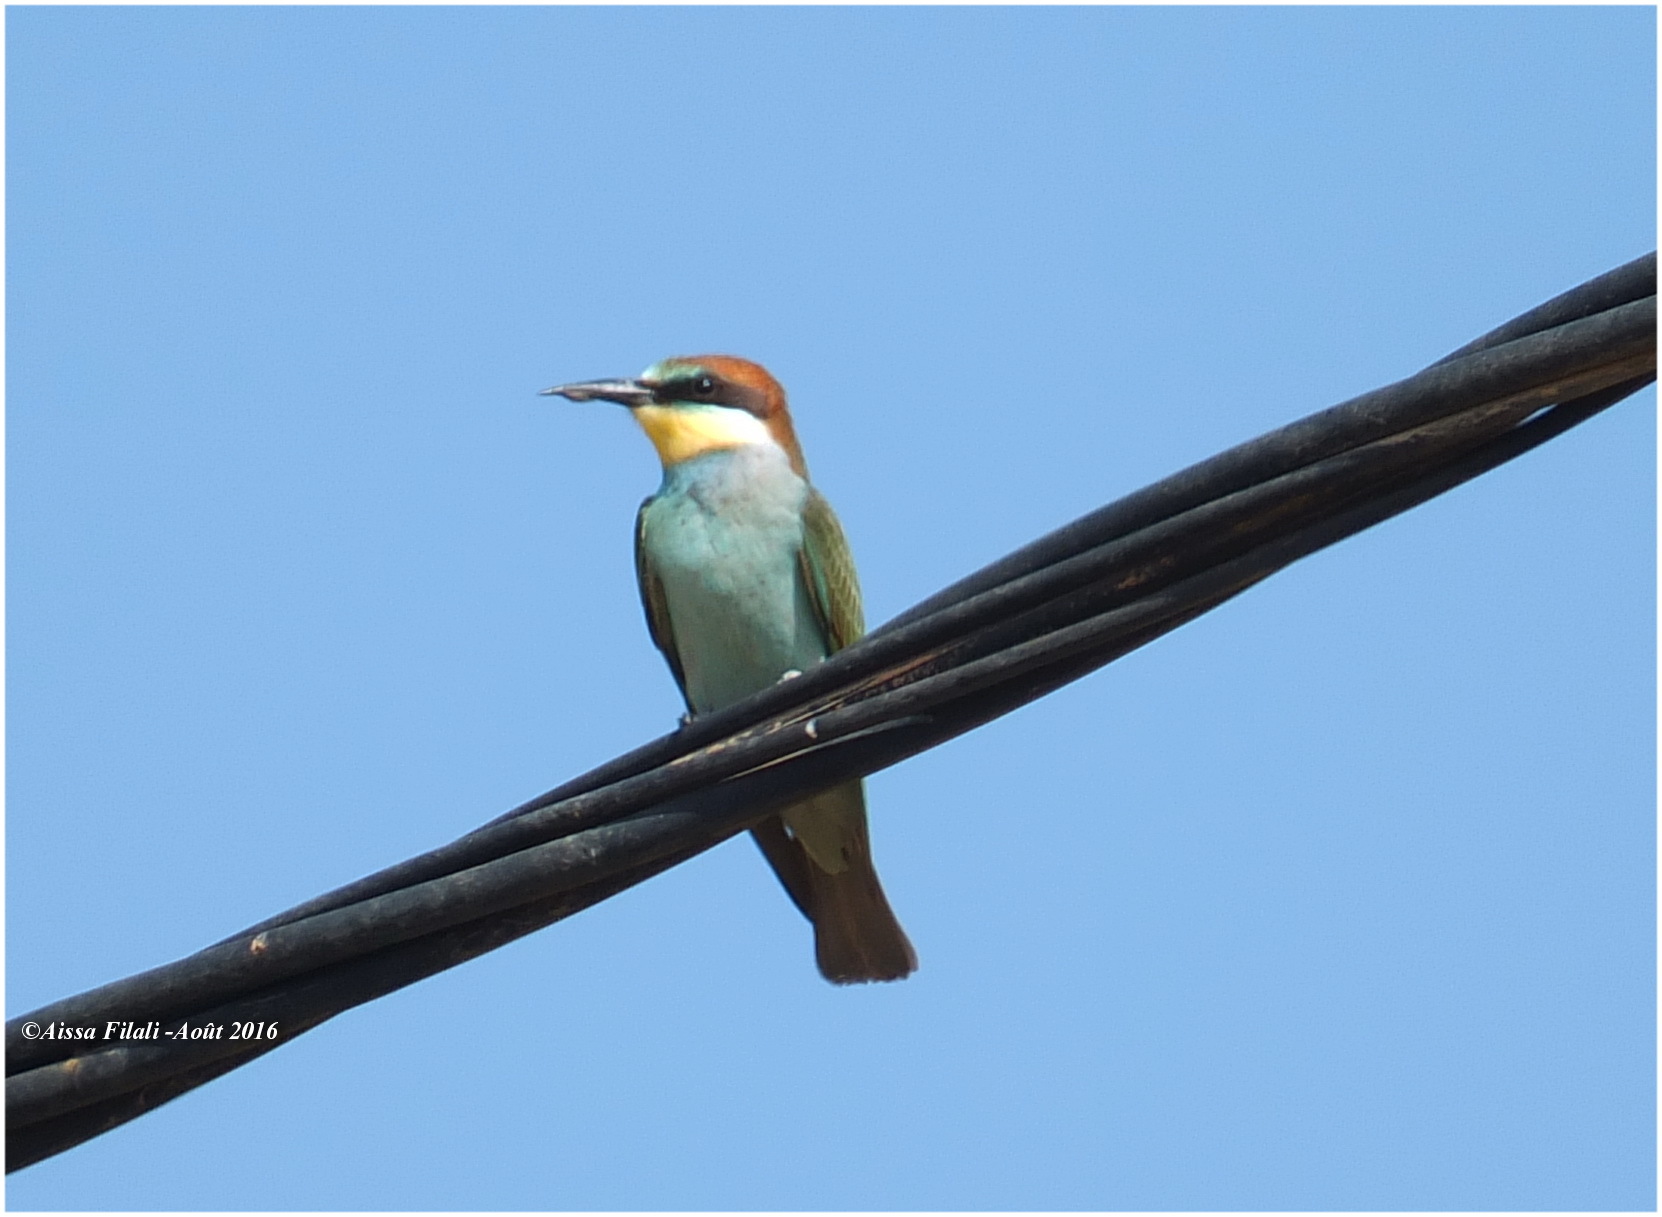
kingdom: Animalia
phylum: Chordata
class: Aves
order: Coraciiformes
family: Meropidae
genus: Merops
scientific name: Merops apiaster
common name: European bee-eater
